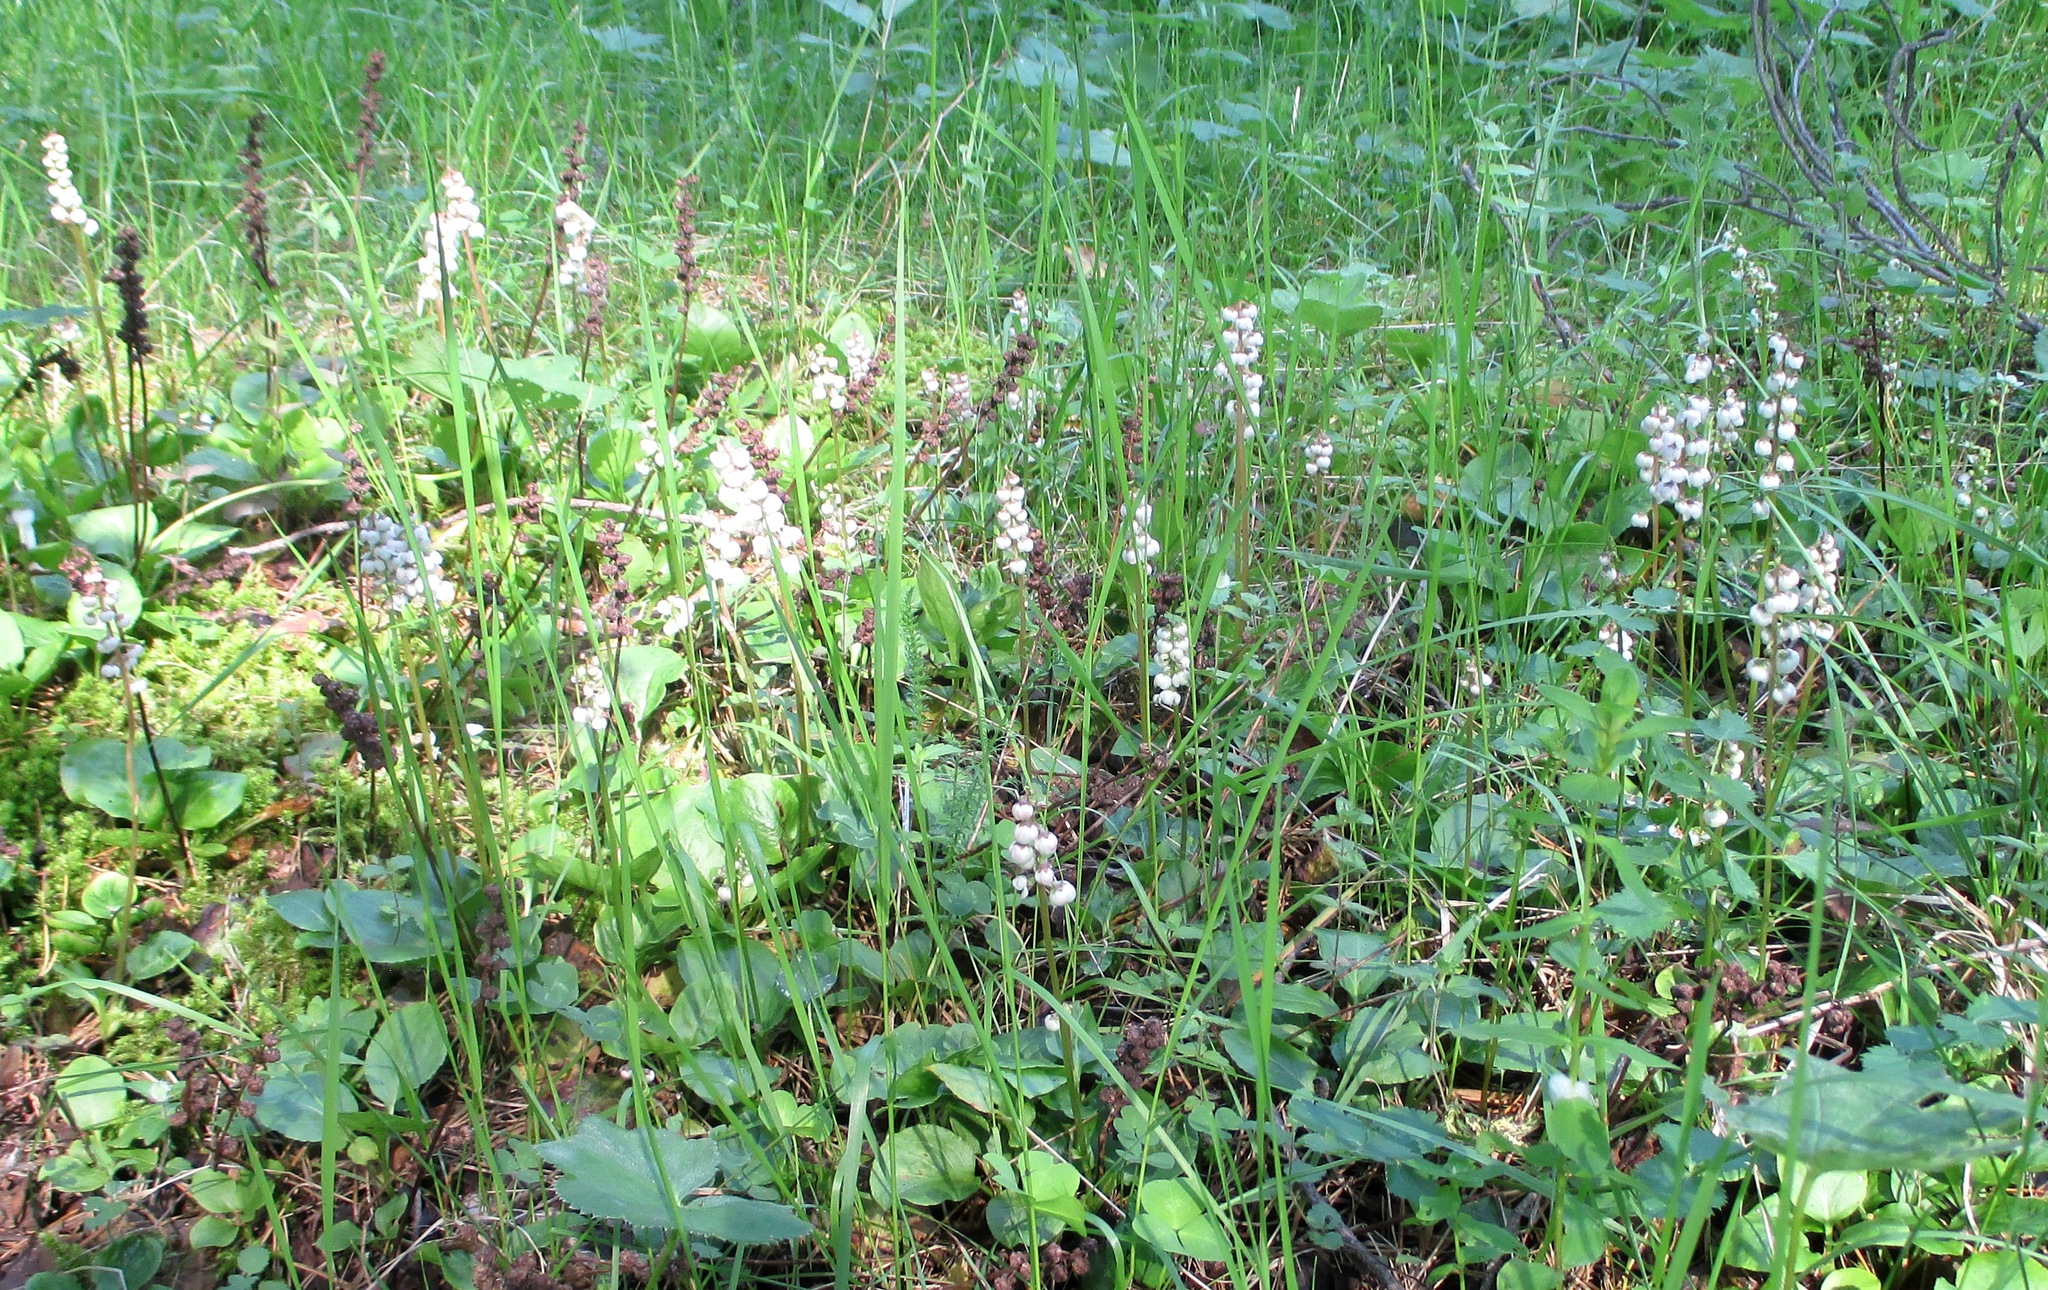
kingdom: Plantae
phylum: Tracheophyta
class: Magnoliopsida
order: Ericales
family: Ericaceae
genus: Pyrola
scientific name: Pyrola minor
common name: Common wintergreen
